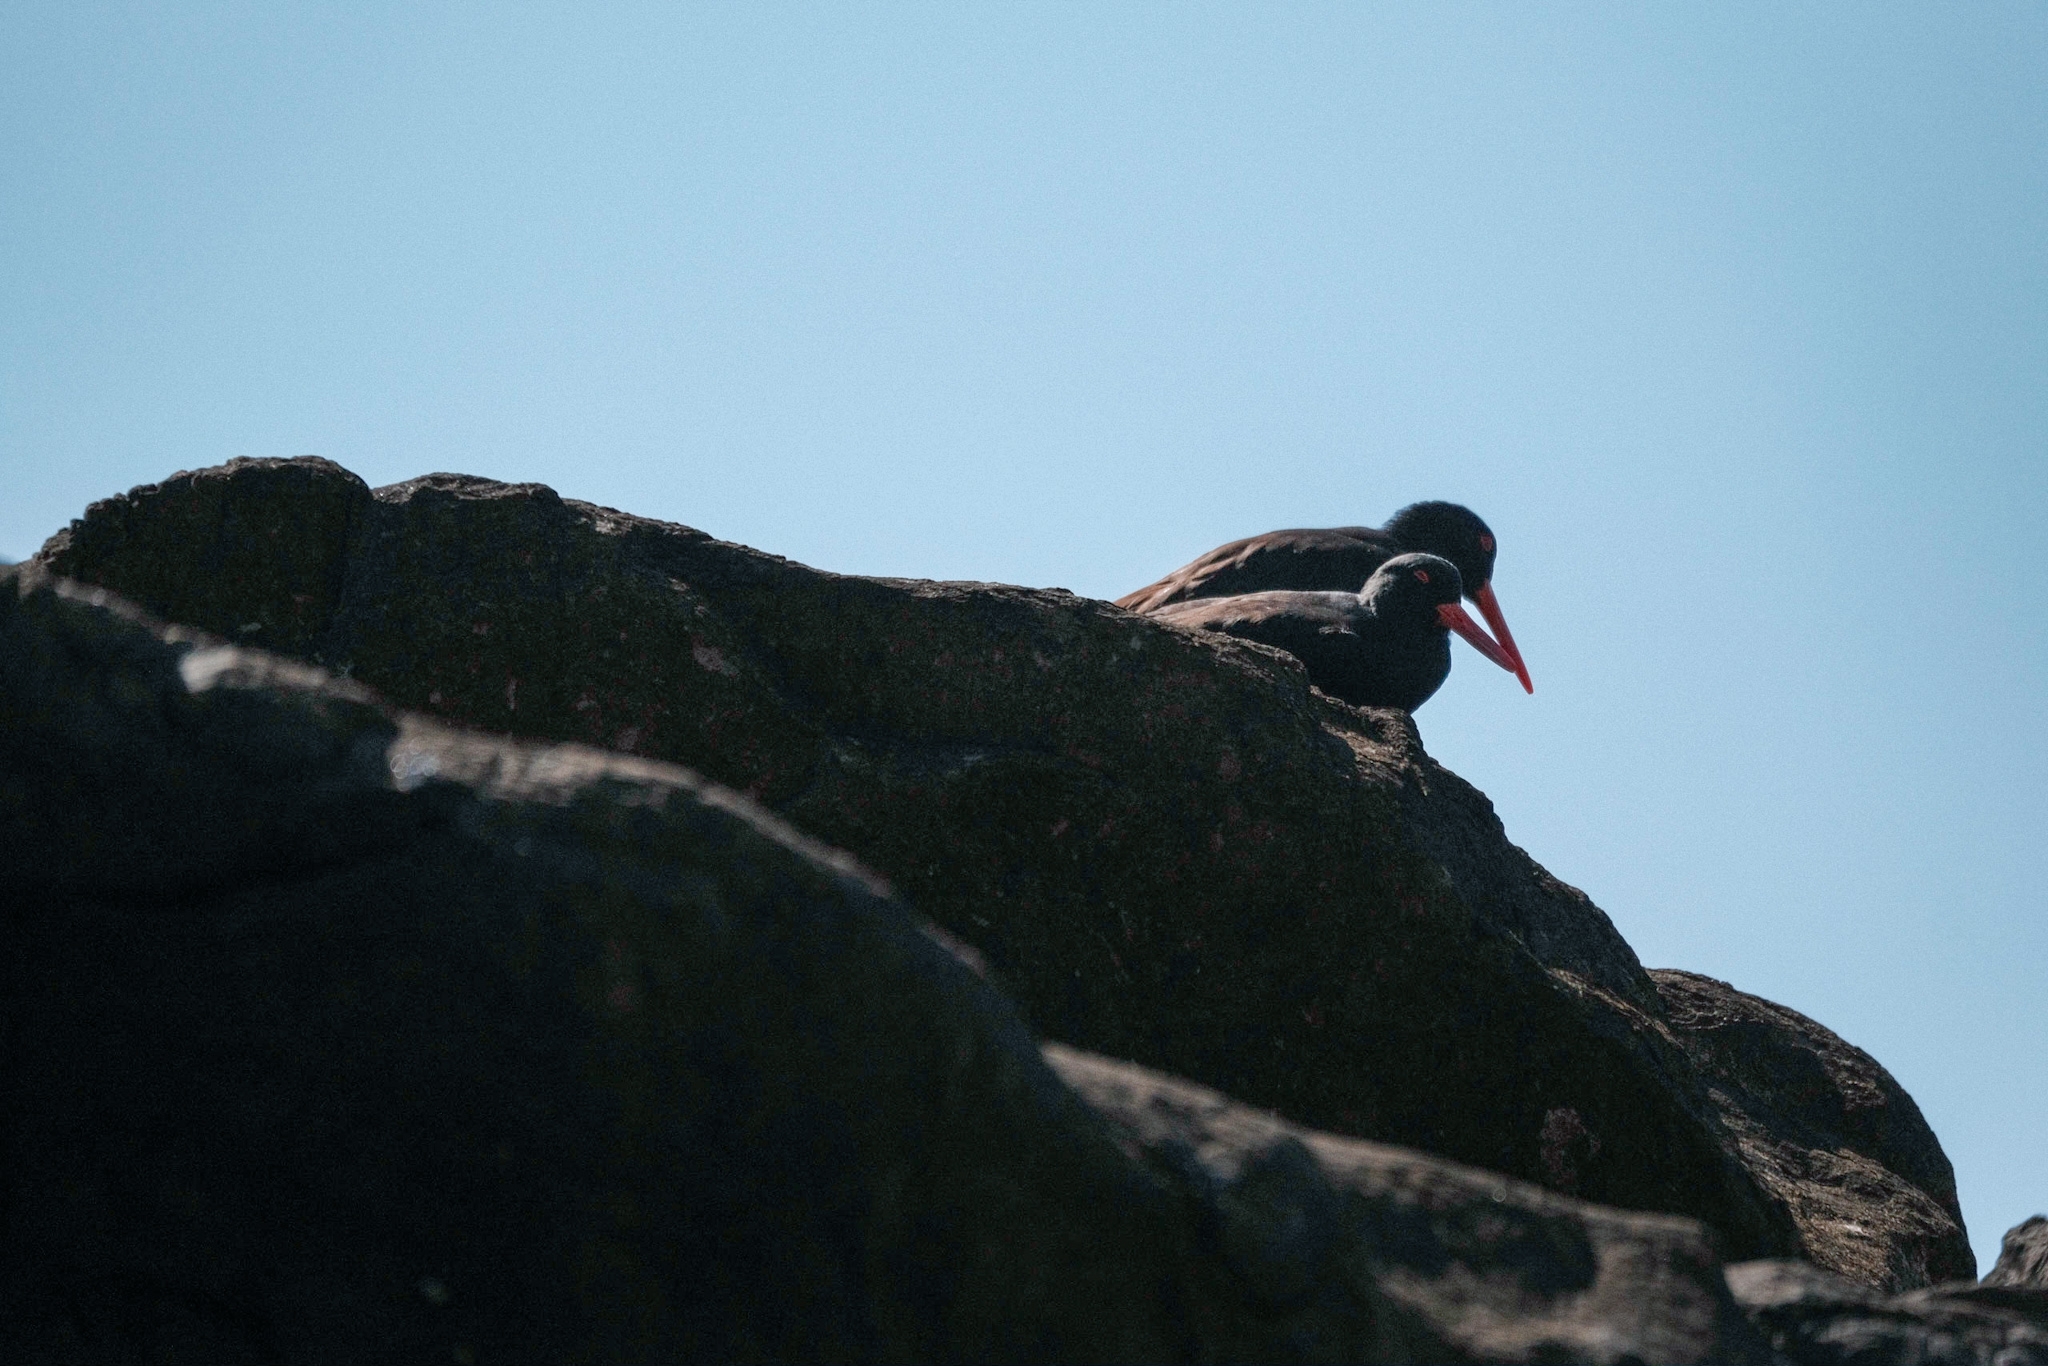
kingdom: Animalia
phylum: Chordata
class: Aves
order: Charadriiformes
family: Haematopodidae
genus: Haematopus
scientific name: Haematopus fuliginosus
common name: Sooty oystercatcher
